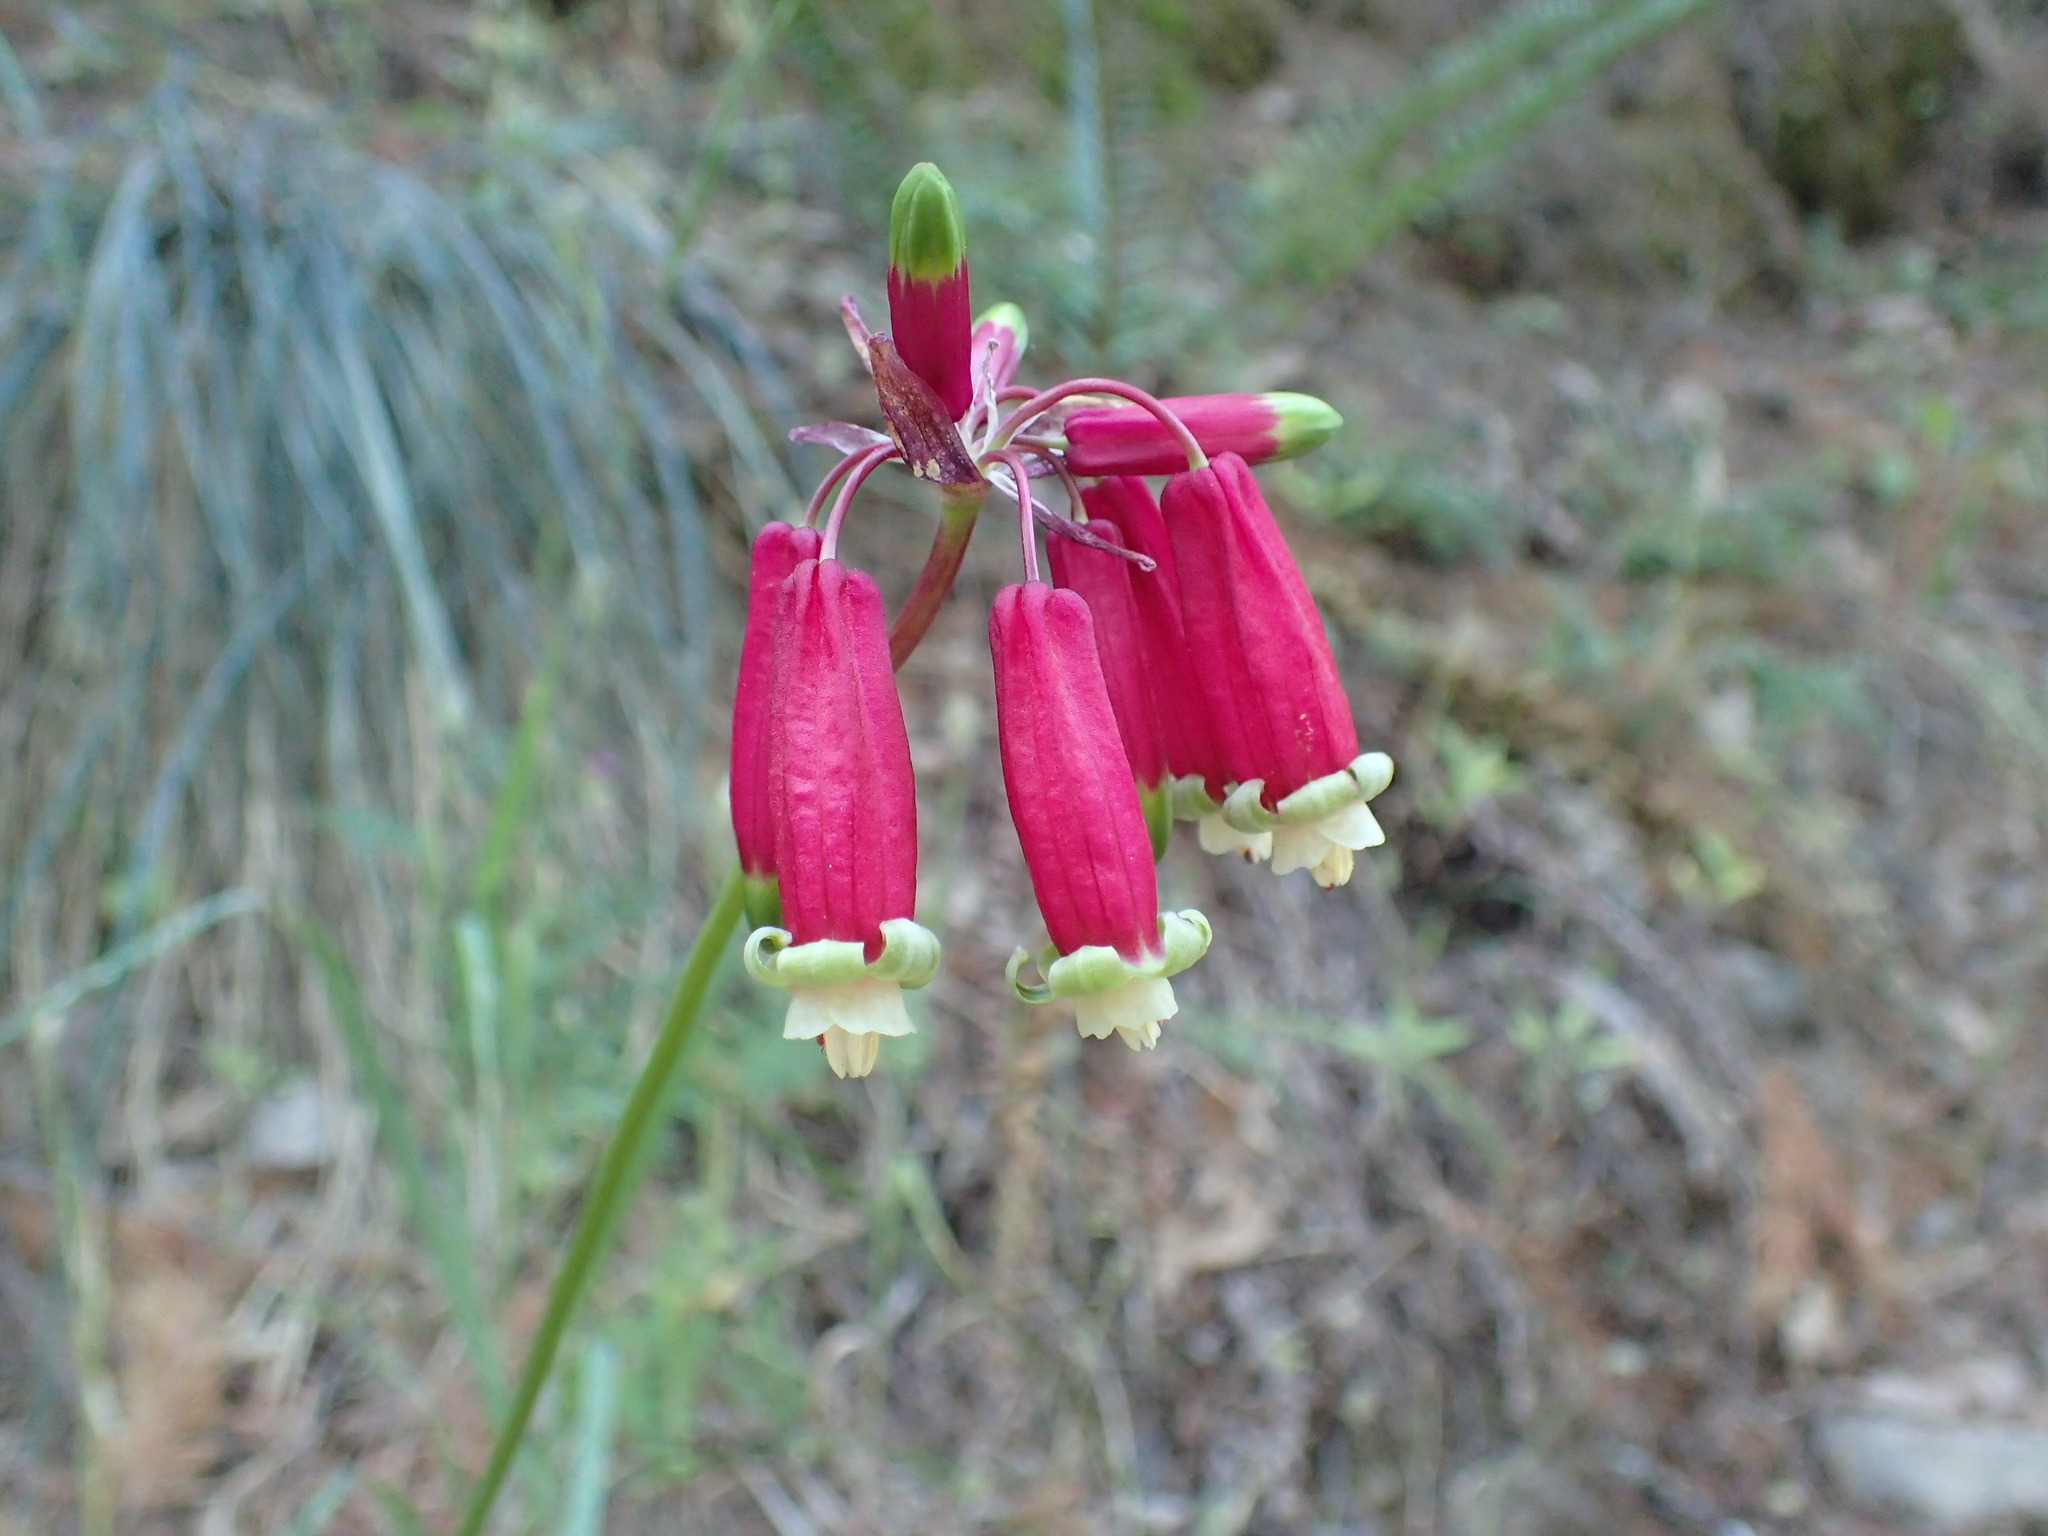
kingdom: Plantae
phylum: Tracheophyta
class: Liliopsida
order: Asparagales
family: Asparagaceae
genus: Dichelostemma
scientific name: Dichelostemma ida-maia
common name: Firecracker-flower
